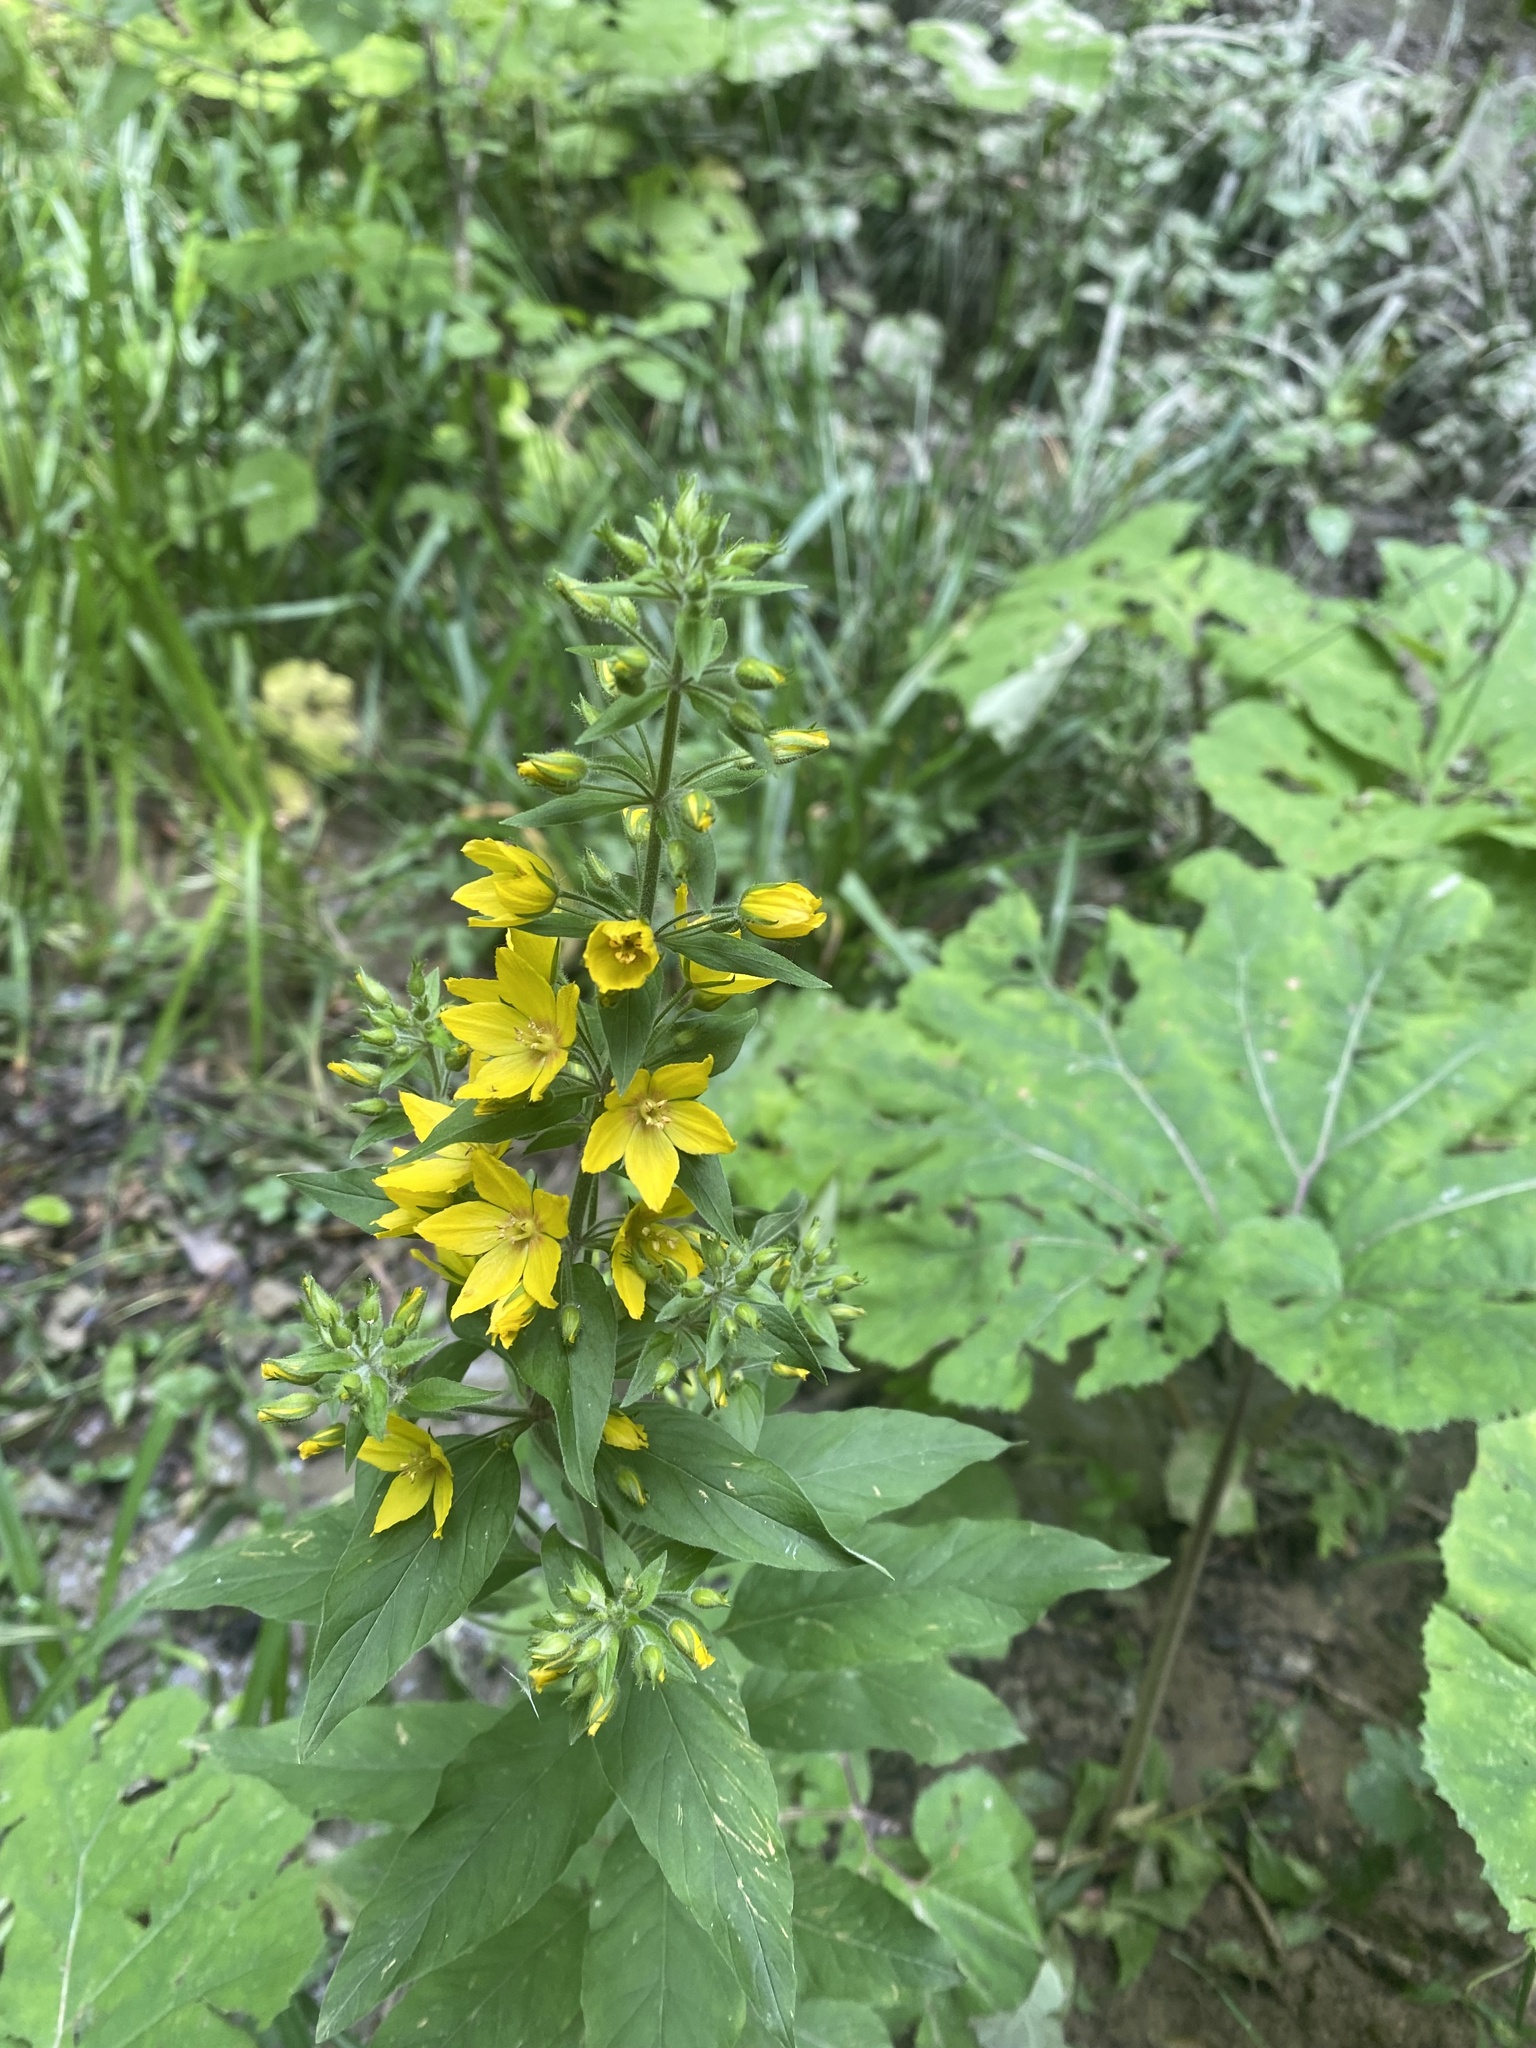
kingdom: Plantae
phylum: Tracheophyta
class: Magnoliopsida
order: Ericales
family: Primulaceae
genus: Lysimachia
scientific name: Lysimachia verticillaris
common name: Yellow loosestrife
